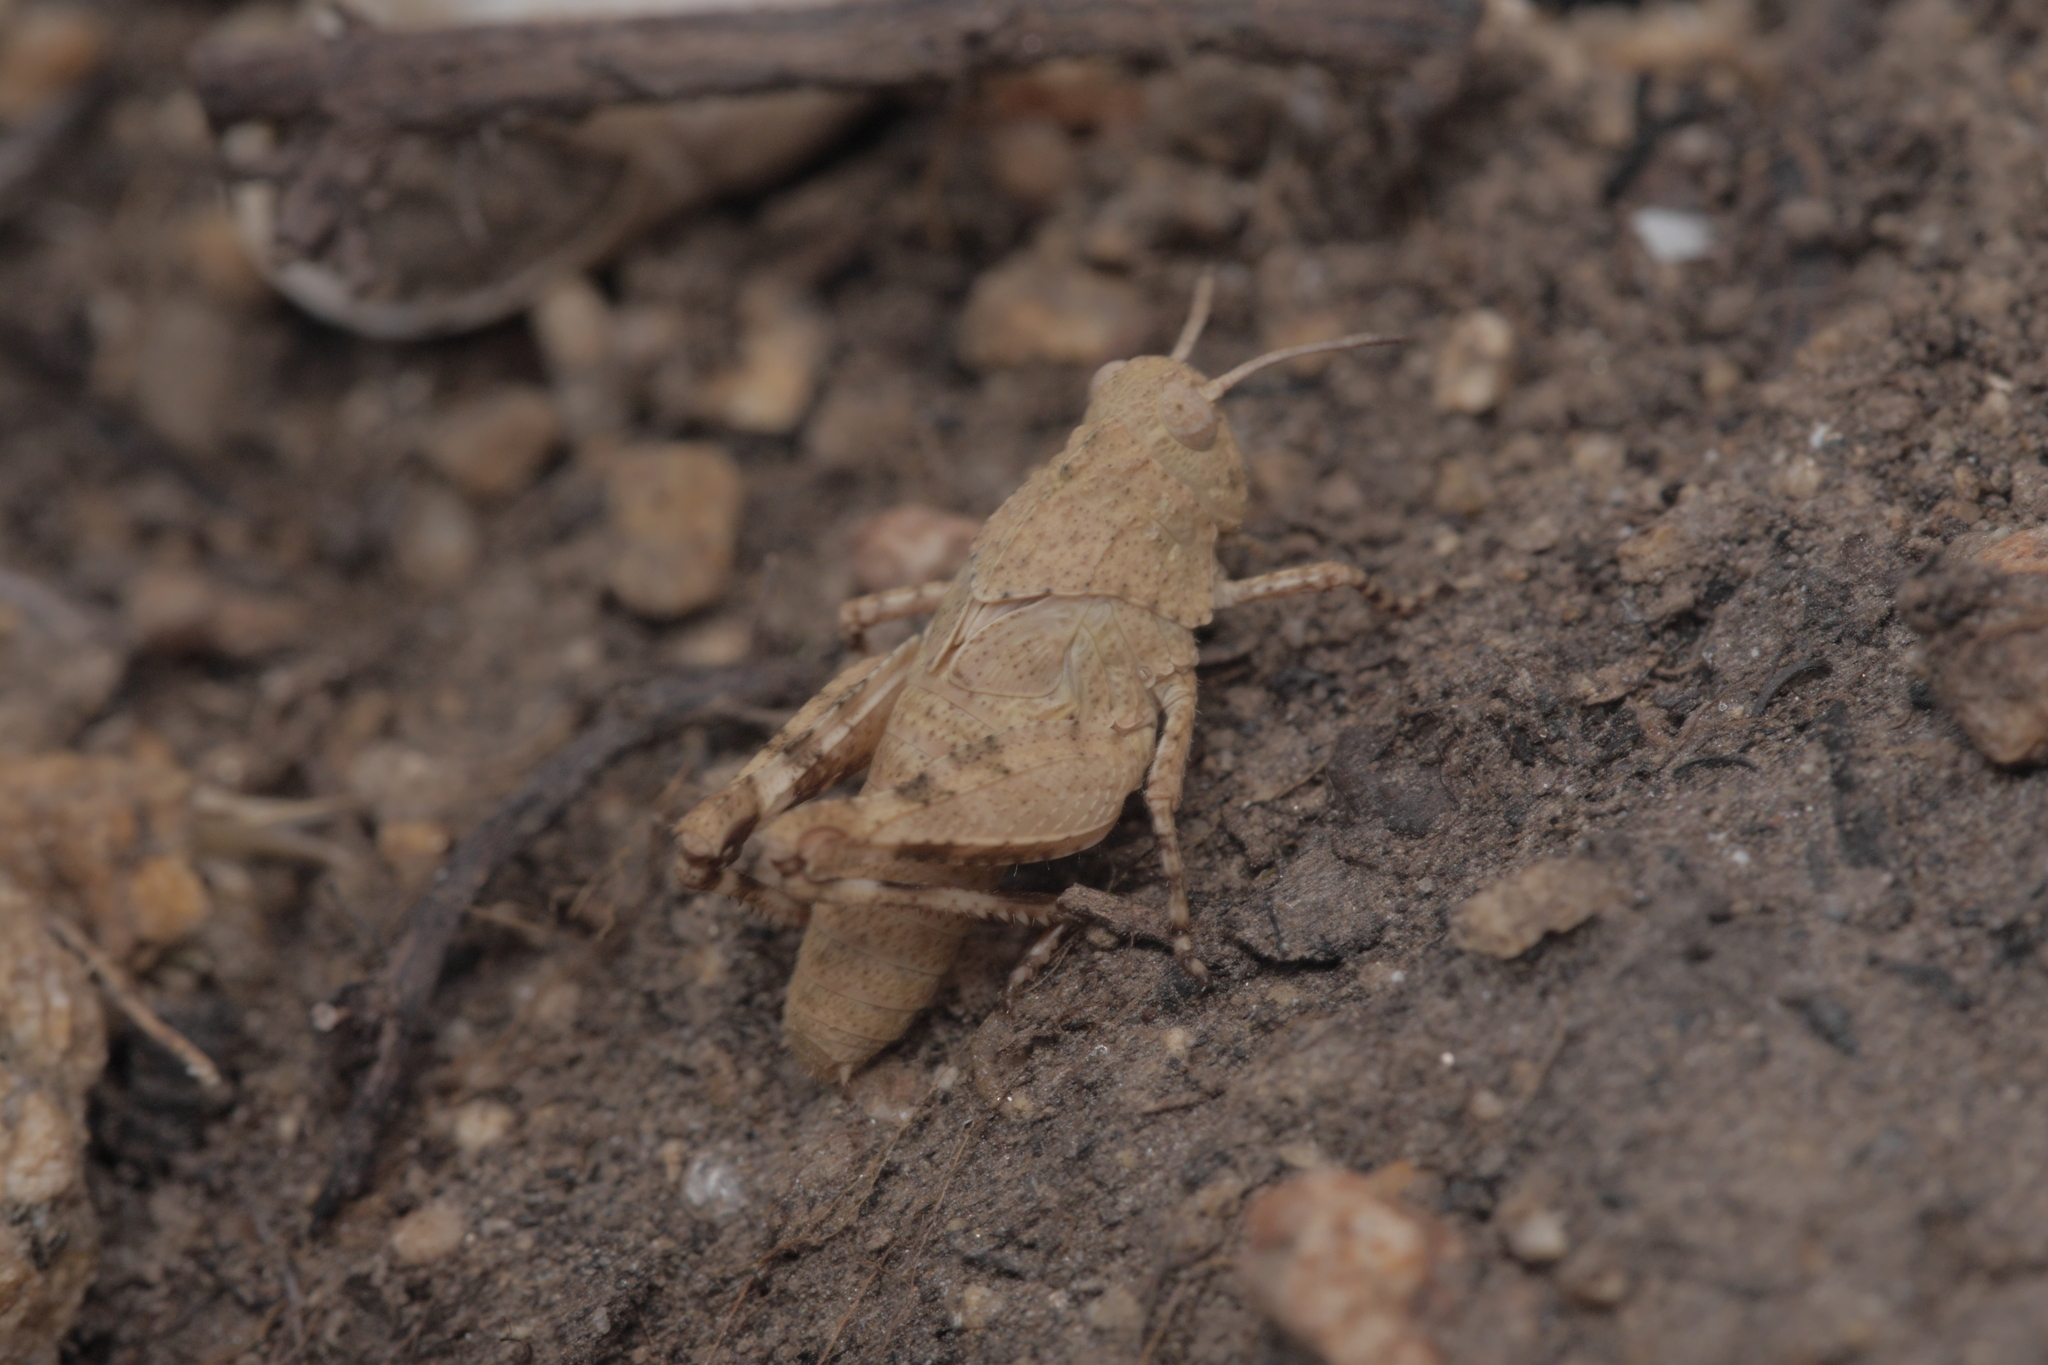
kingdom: Animalia
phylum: Arthropoda
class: Insecta
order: Orthoptera
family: Acrididae
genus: Oedipoda
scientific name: Oedipoda caerulescens
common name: Blue-winged grasshopper
